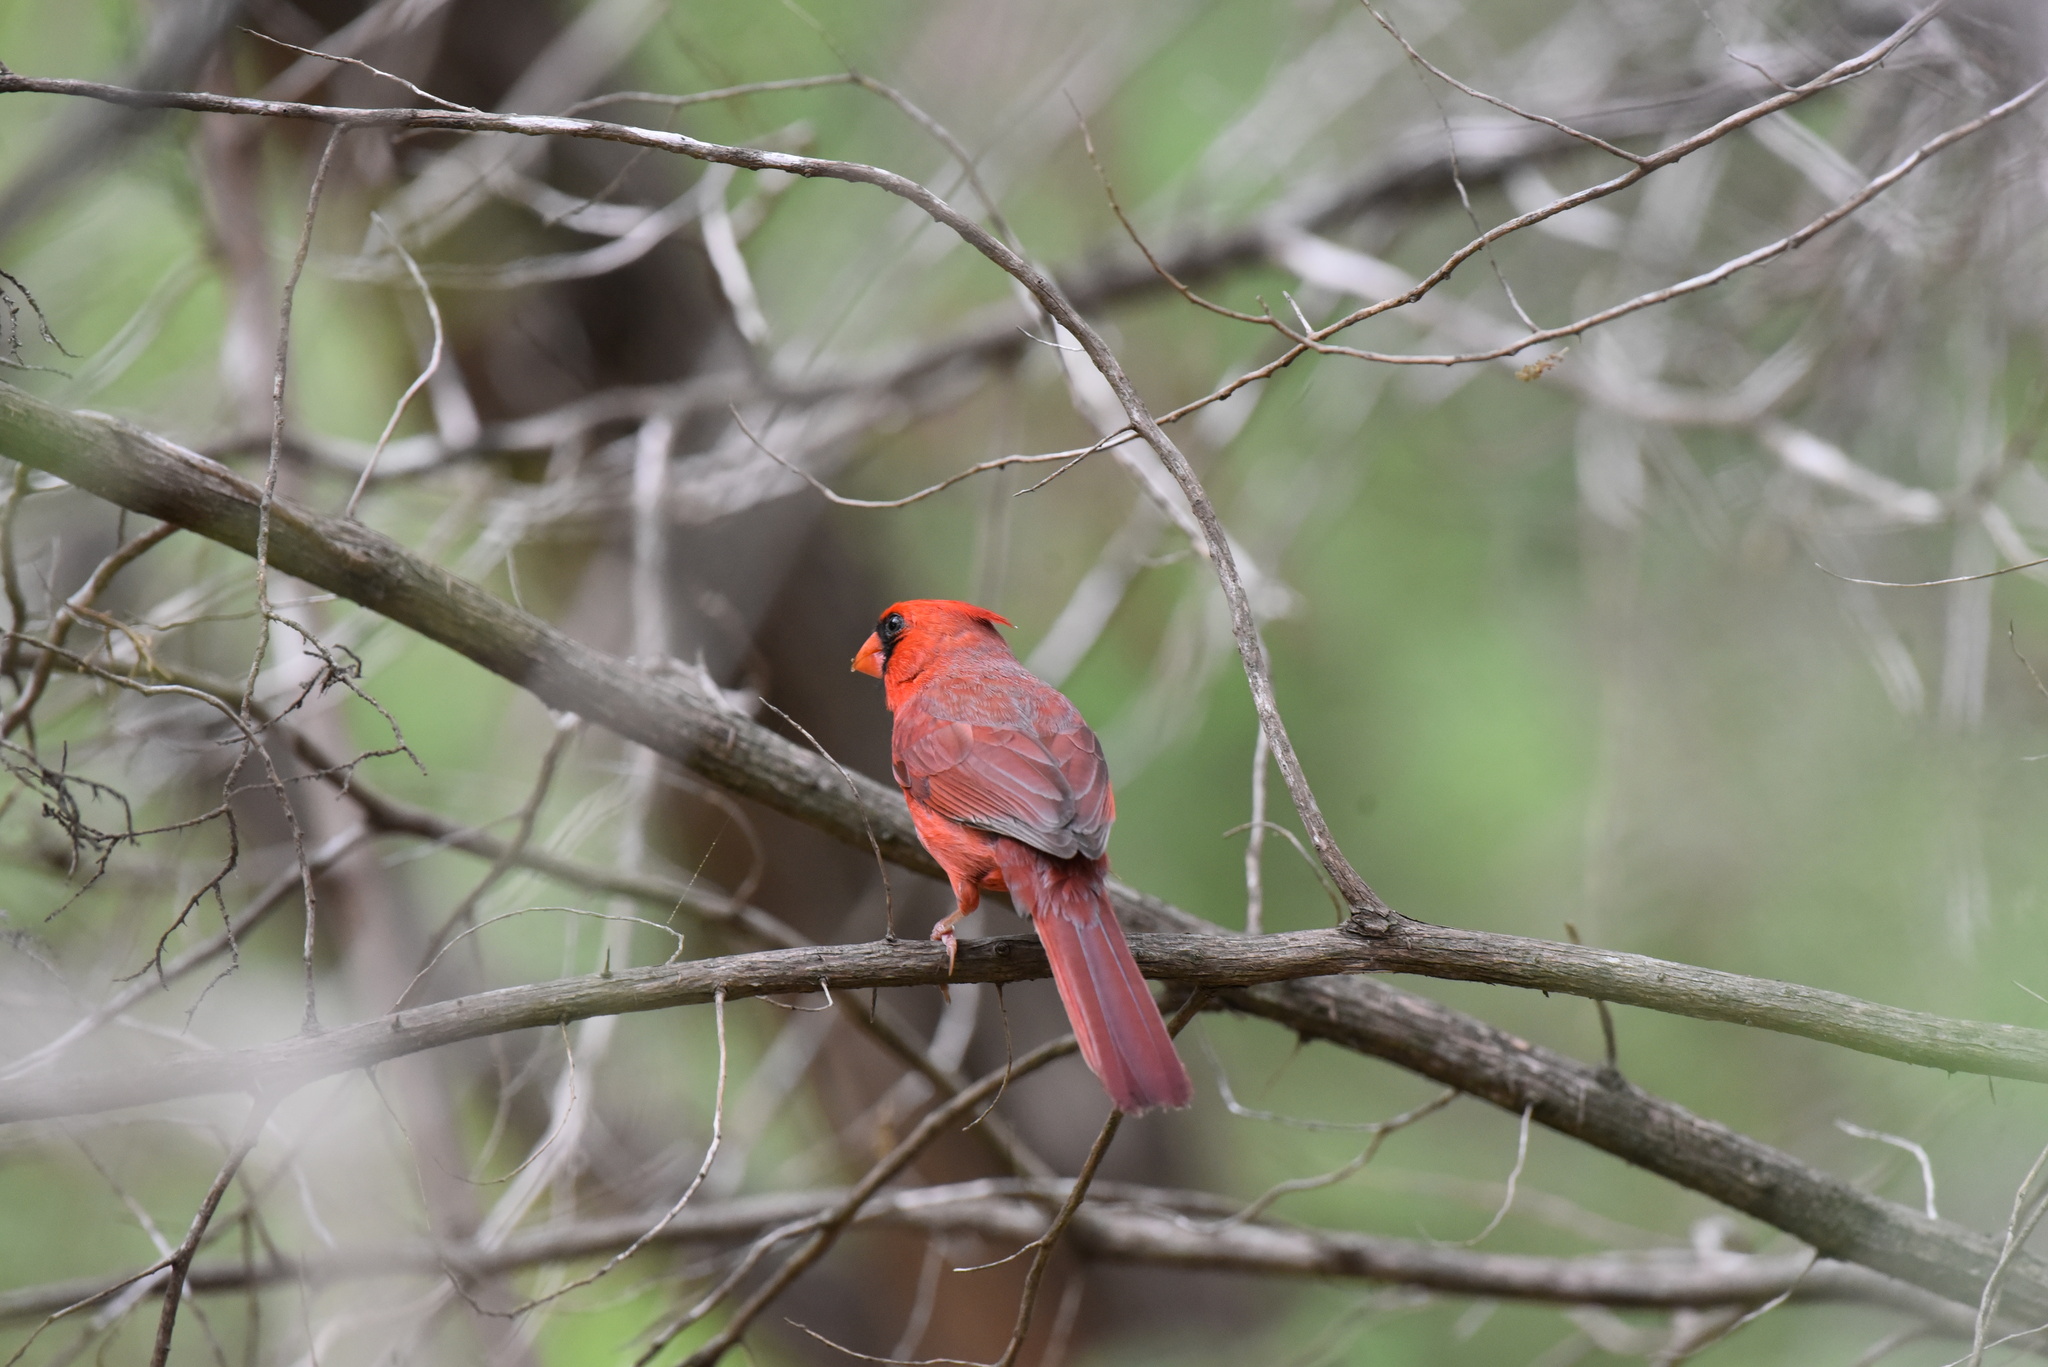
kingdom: Animalia
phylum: Chordata
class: Aves
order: Passeriformes
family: Cardinalidae
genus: Cardinalis
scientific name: Cardinalis cardinalis
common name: Northern cardinal
